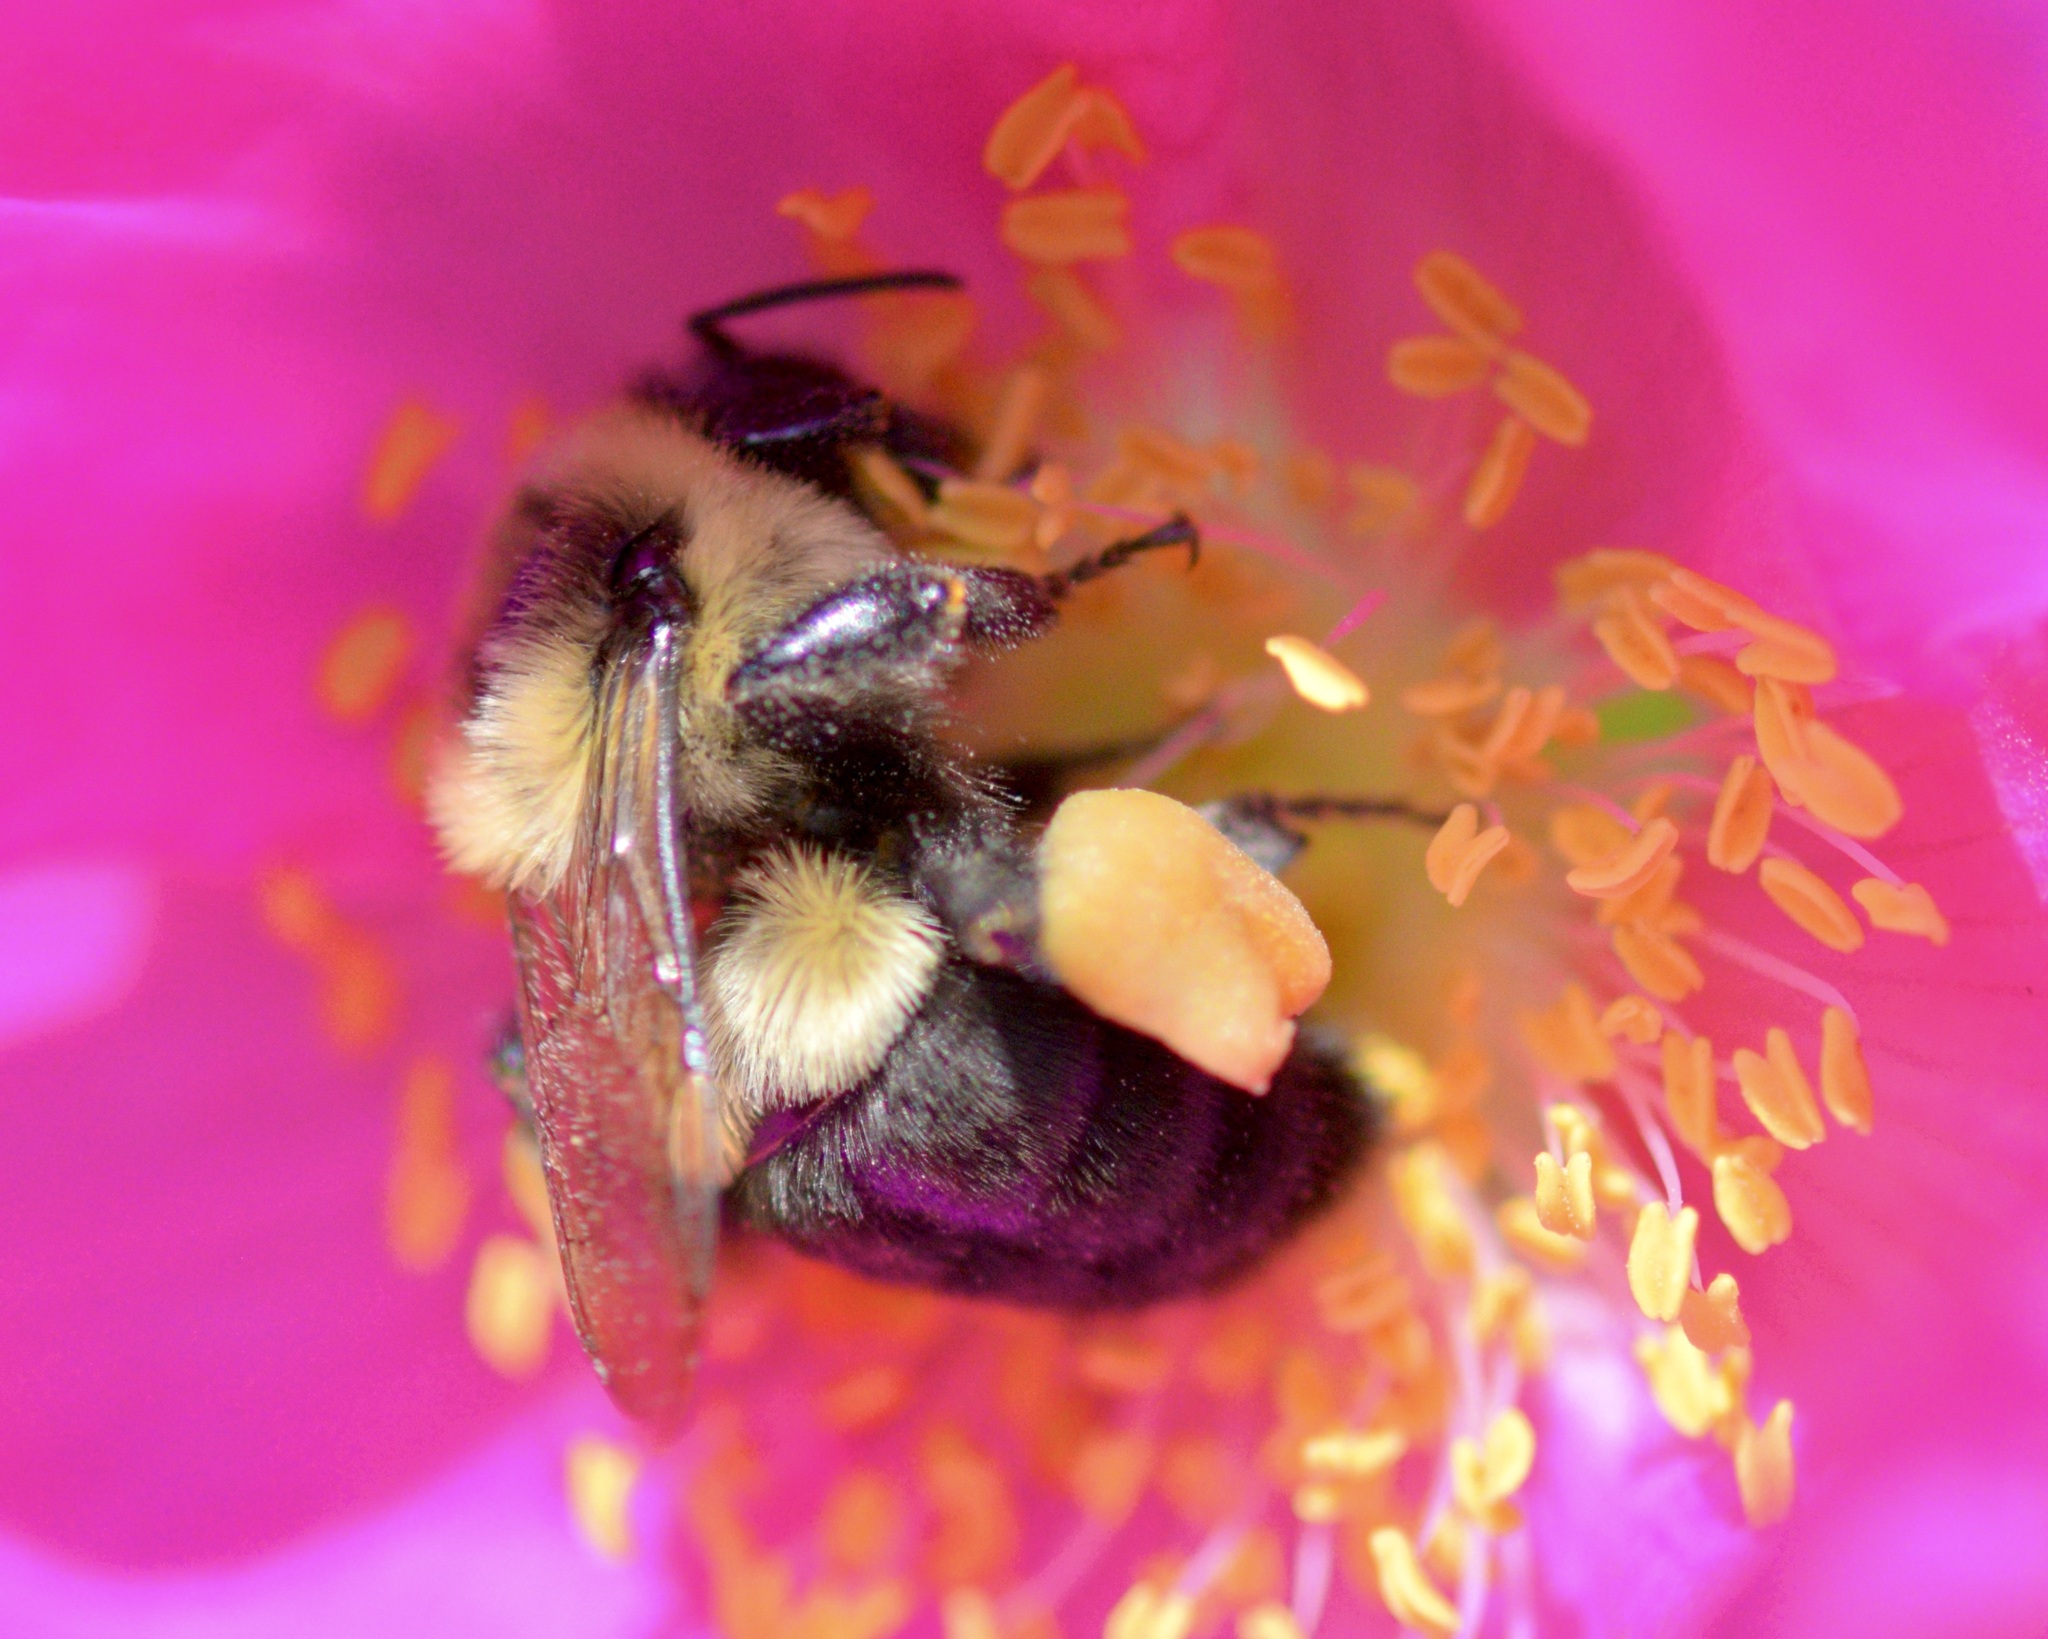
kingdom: Animalia
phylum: Arthropoda
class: Insecta
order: Hymenoptera
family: Apidae
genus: Bombus
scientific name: Bombus impatiens
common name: Common eastern bumble bee
